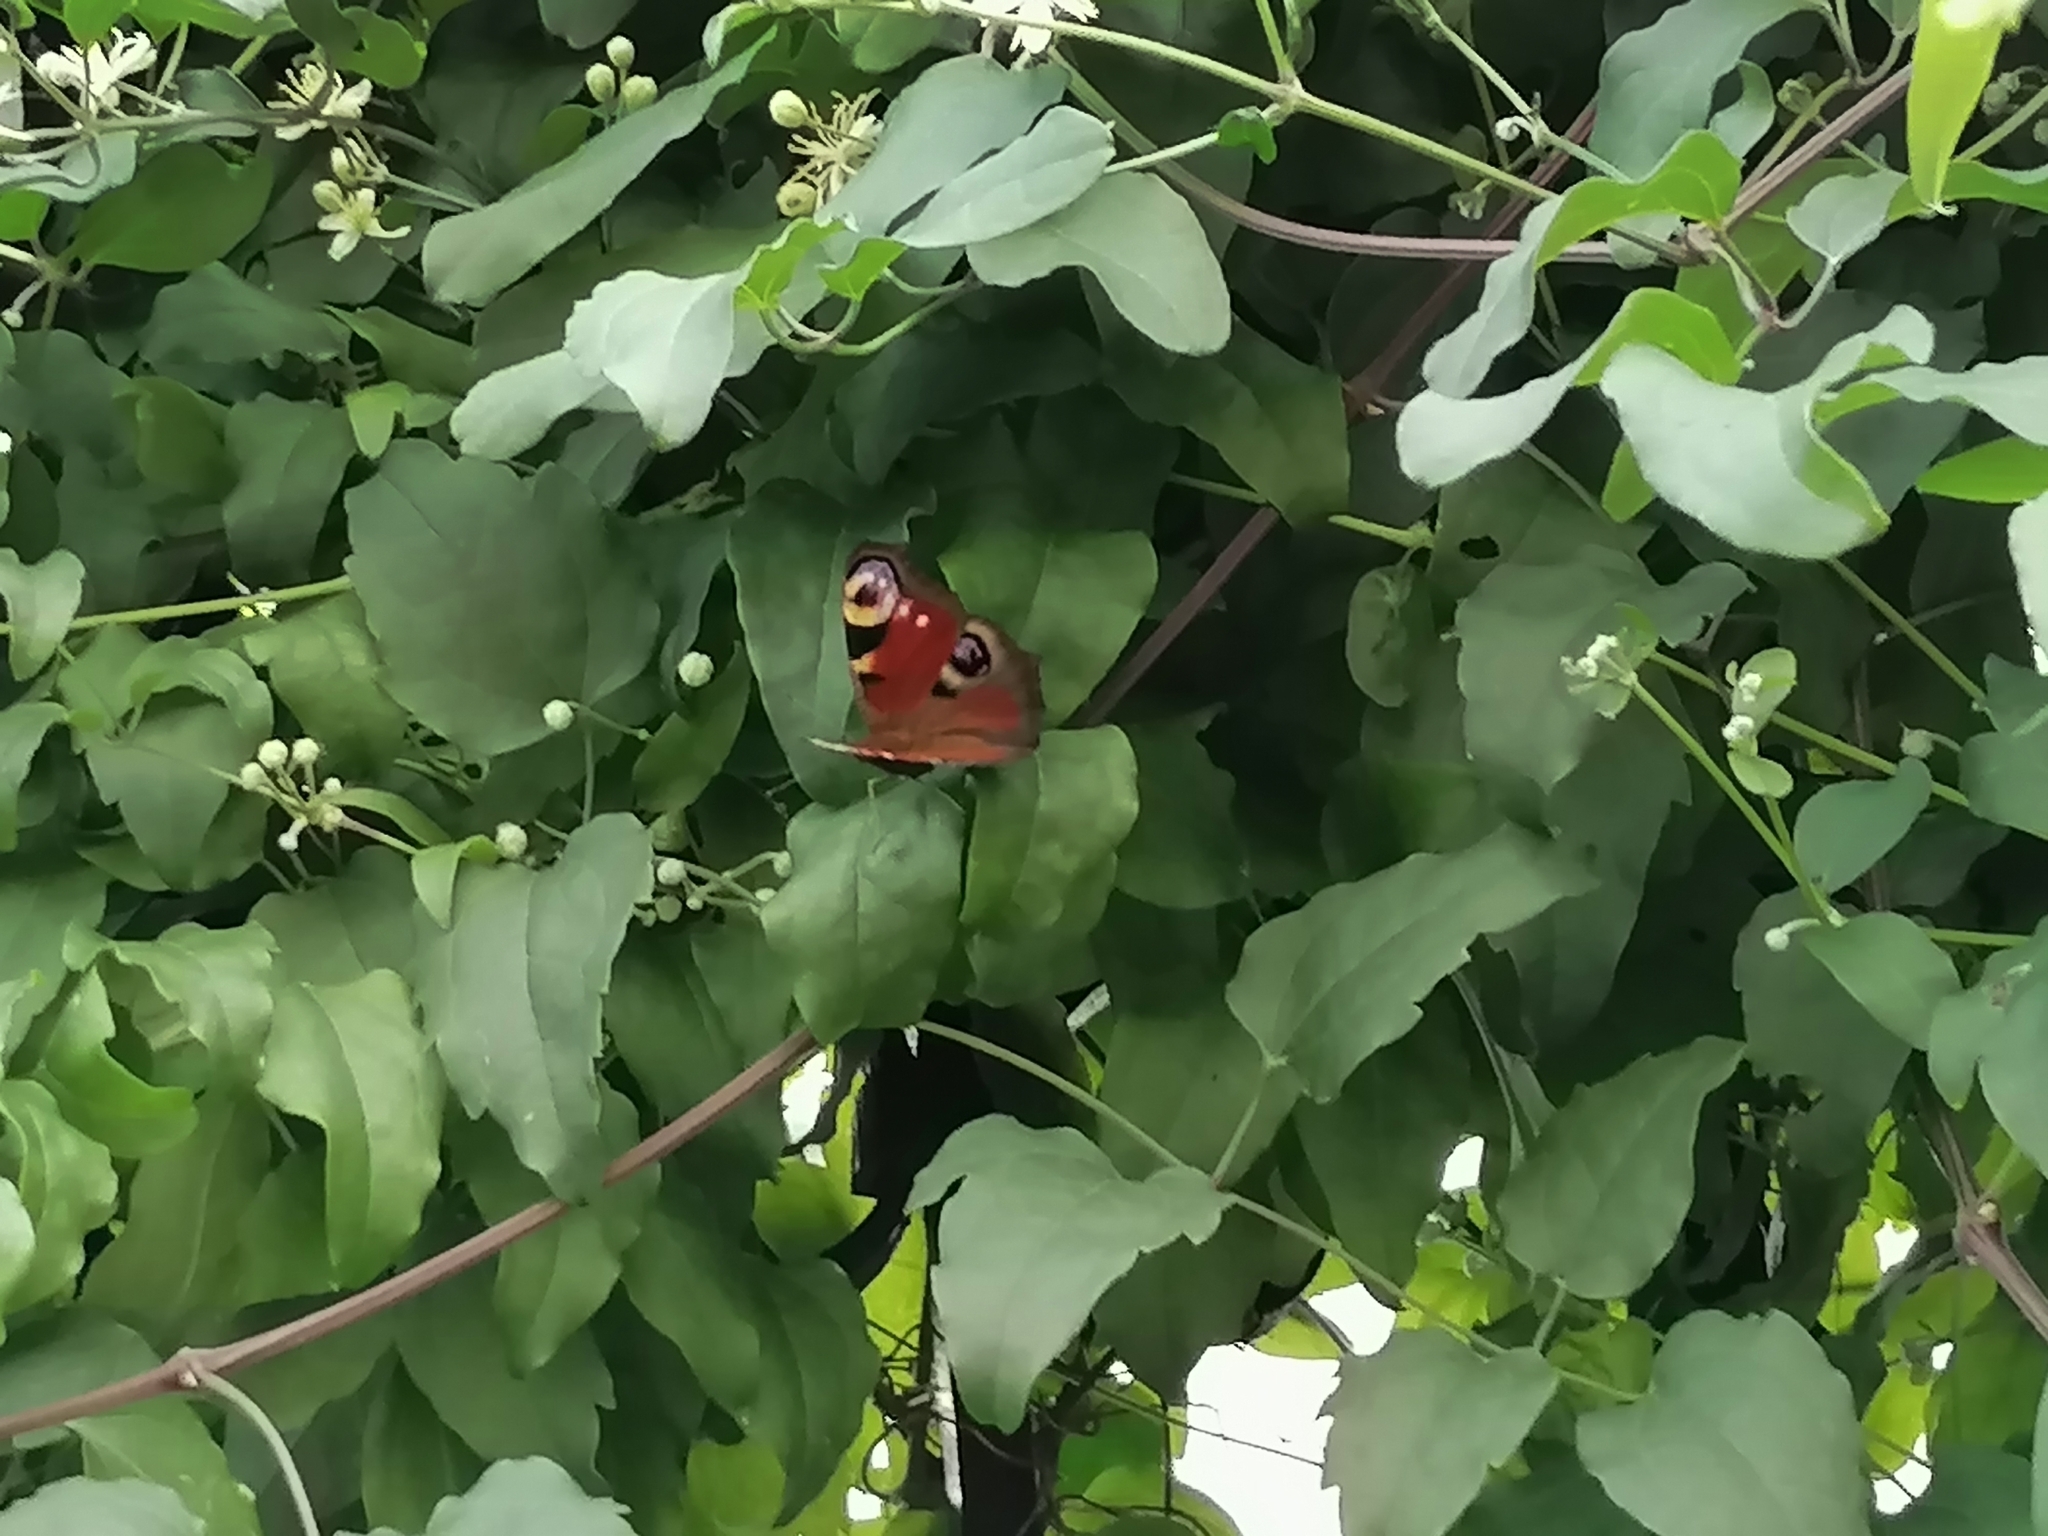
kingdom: Animalia
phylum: Arthropoda
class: Insecta
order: Lepidoptera
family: Nymphalidae
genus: Aglais
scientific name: Aglais io
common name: Peacock
